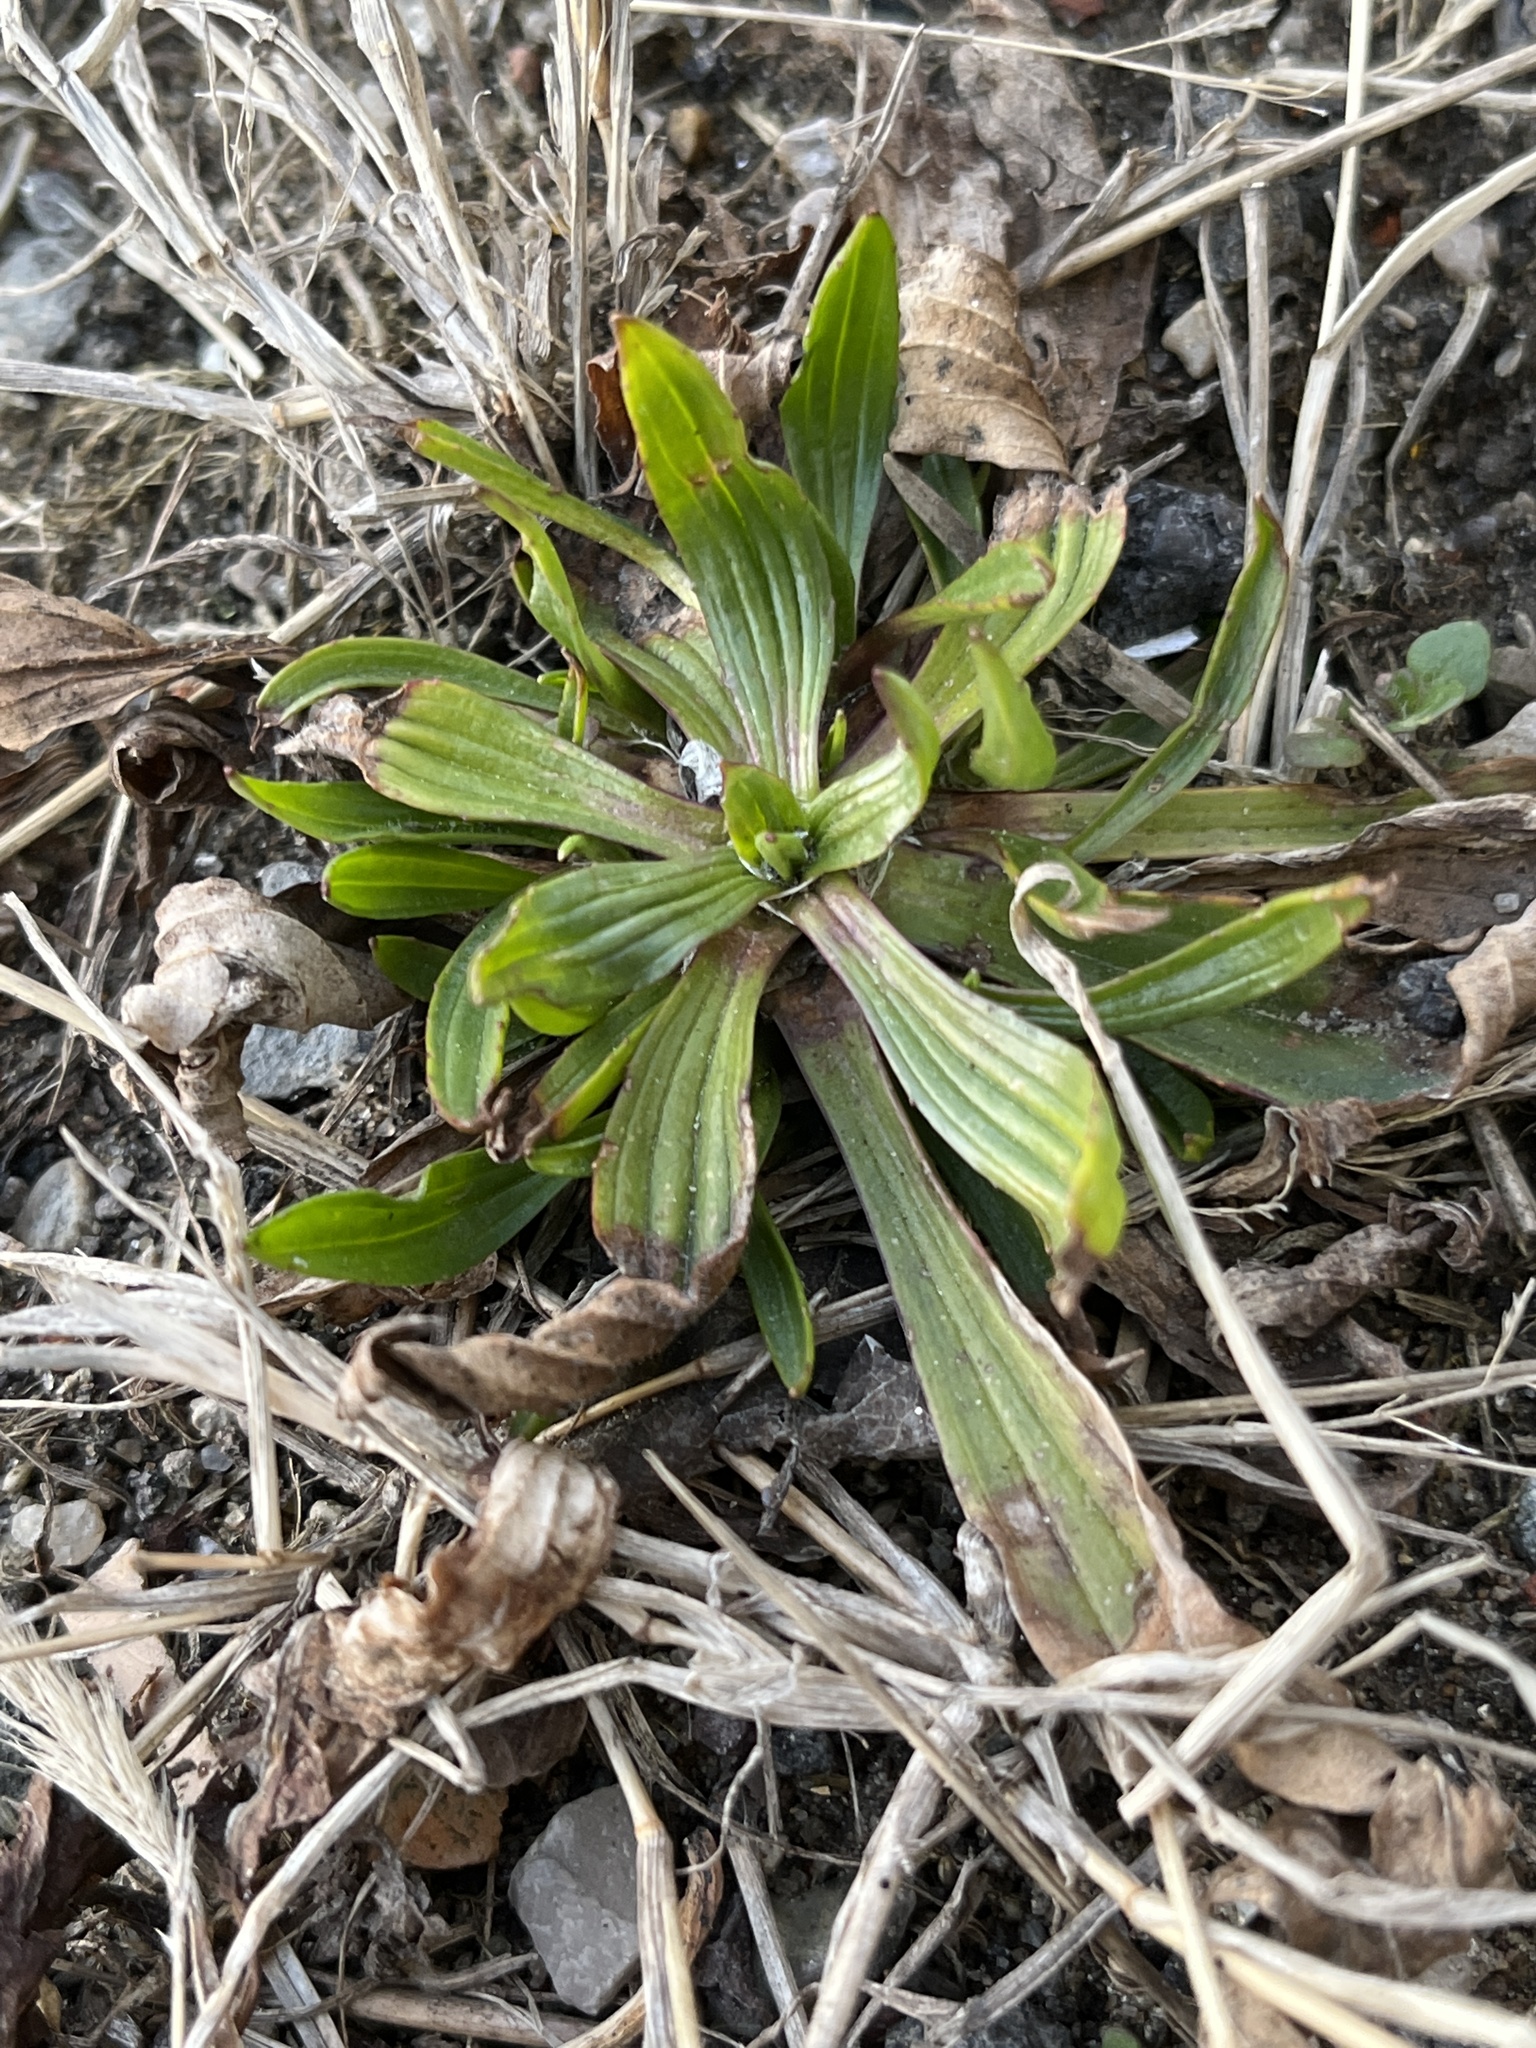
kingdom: Plantae
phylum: Tracheophyta
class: Magnoliopsida
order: Lamiales
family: Plantaginaceae
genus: Plantago
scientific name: Plantago lanceolata
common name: Ribwort plantain
